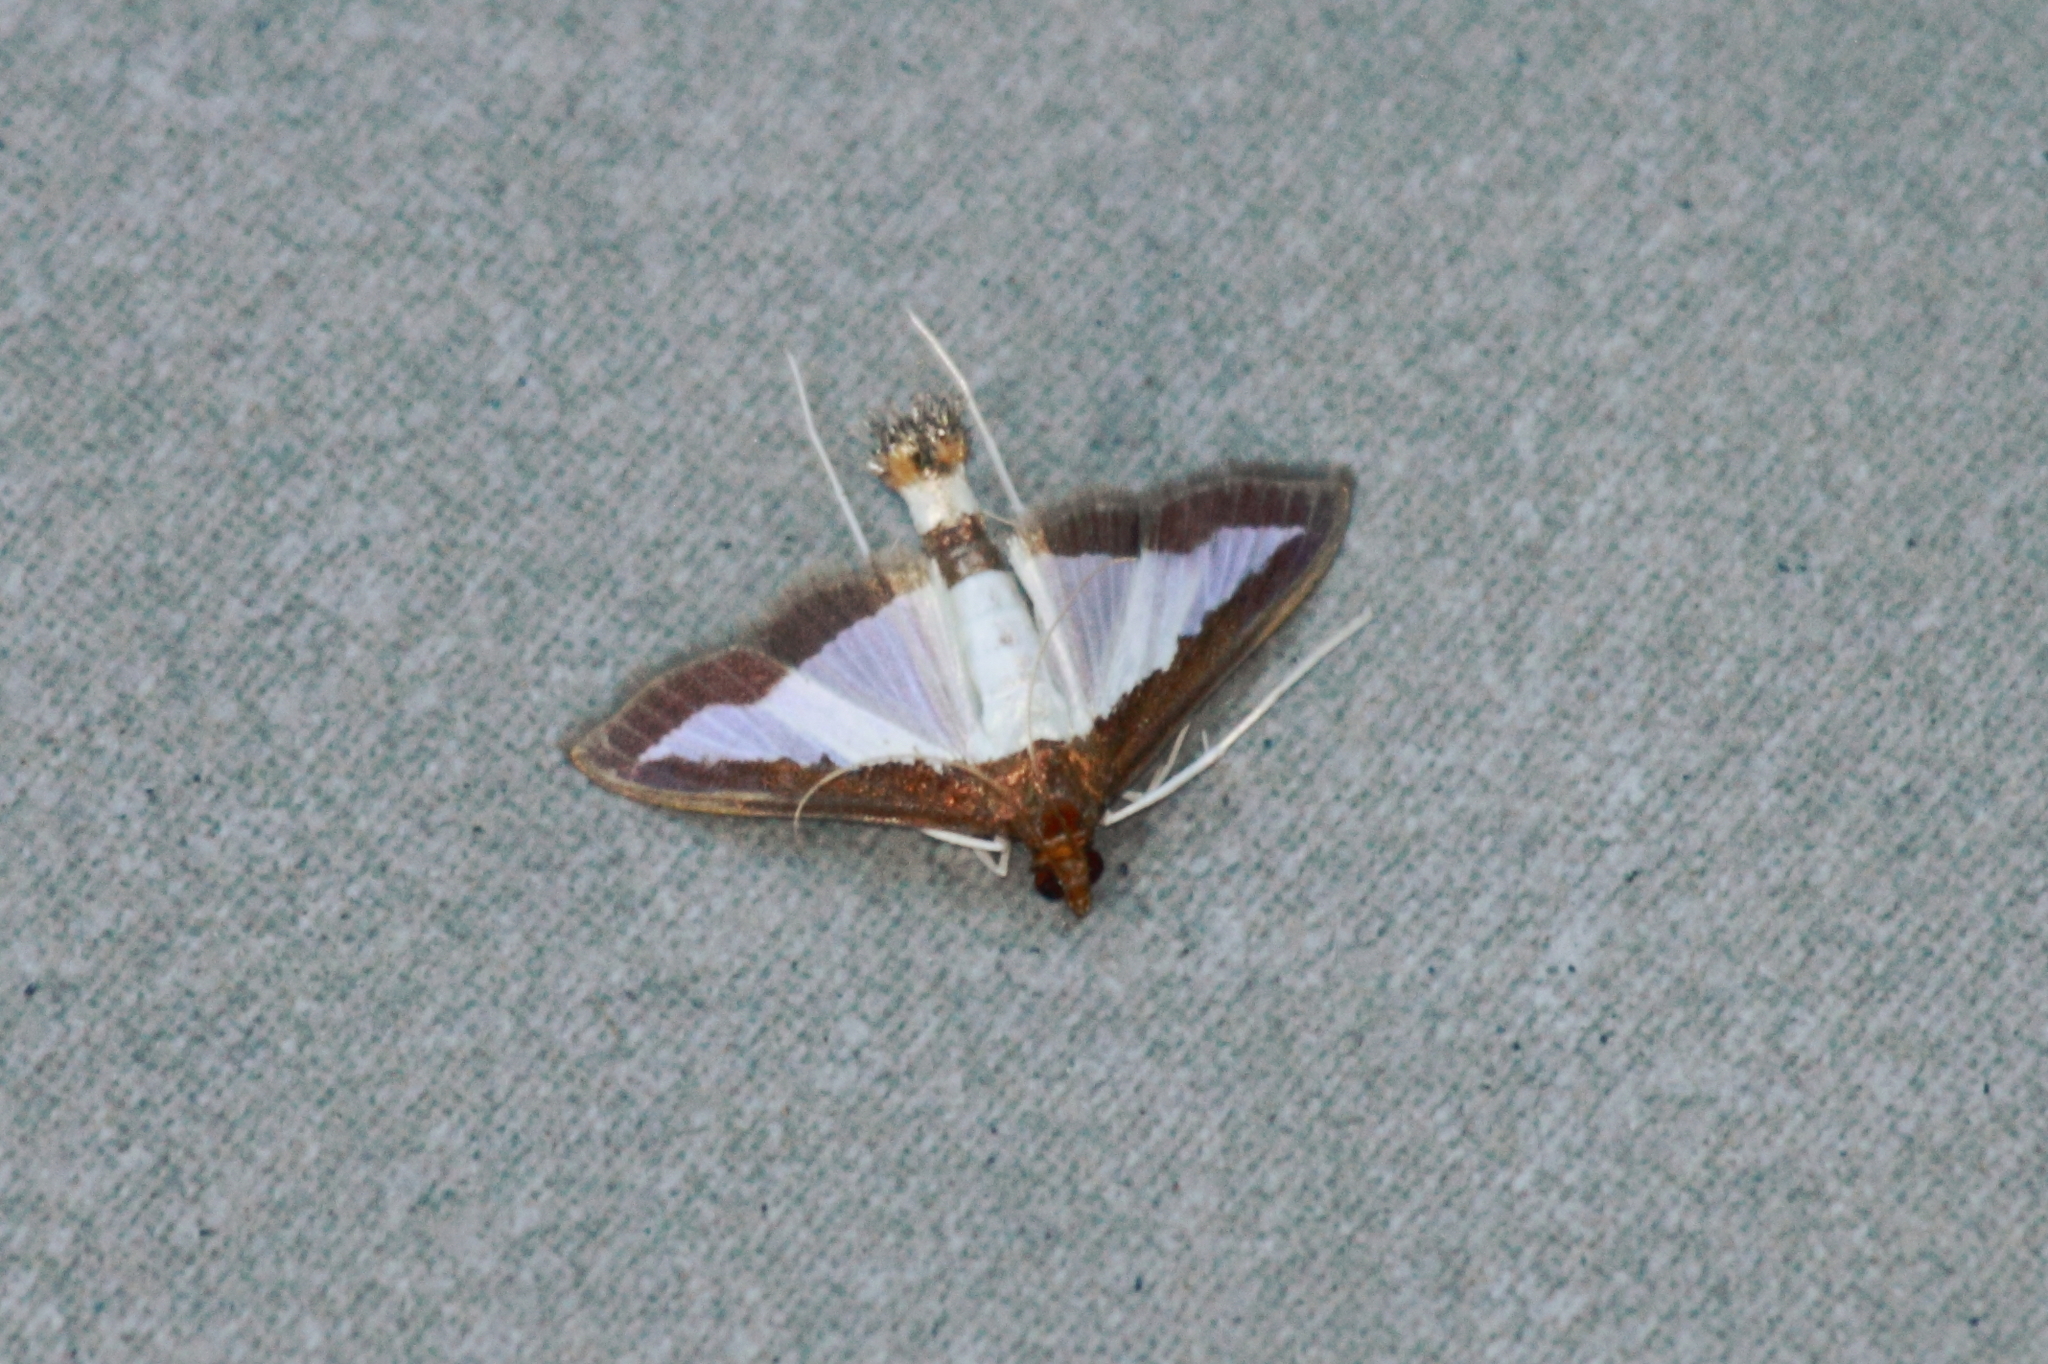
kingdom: Animalia
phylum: Arthropoda
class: Insecta
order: Lepidoptera
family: Crambidae
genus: Diaphania
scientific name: Diaphania indica
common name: Cucumber moth
